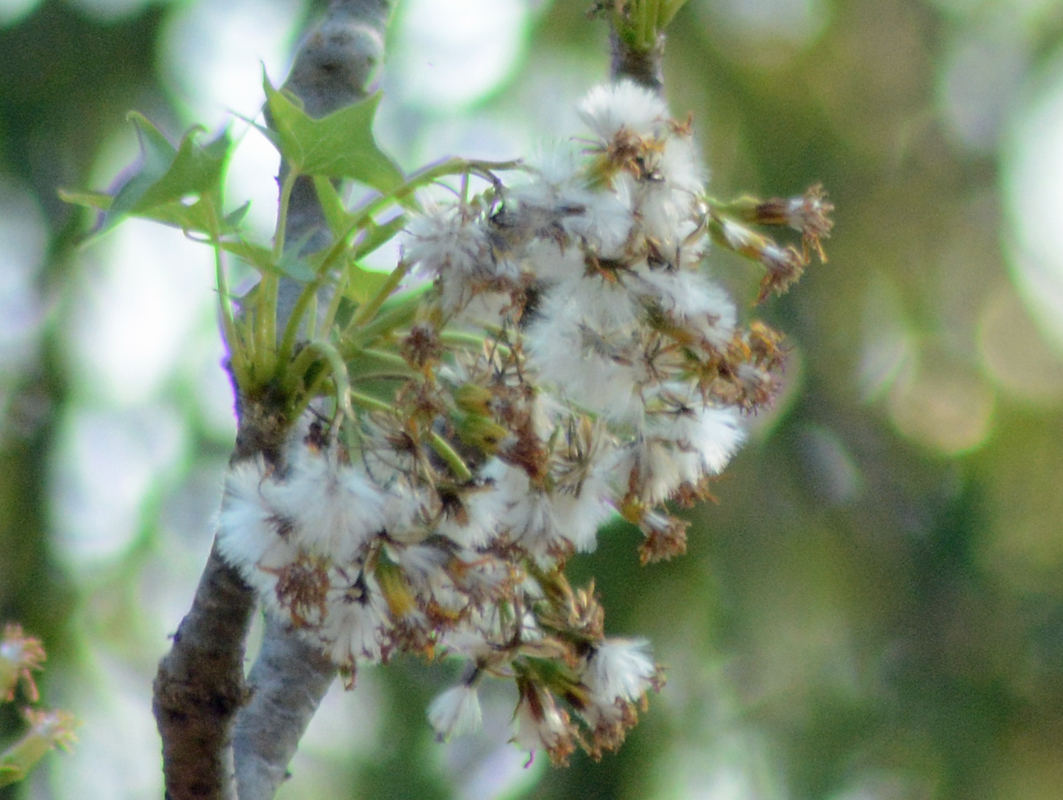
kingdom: Plantae
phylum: Tracheophyta
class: Magnoliopsida
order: Asterales
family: Asteraceae
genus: Pittocaulon
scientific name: Pittocaulon praecox
